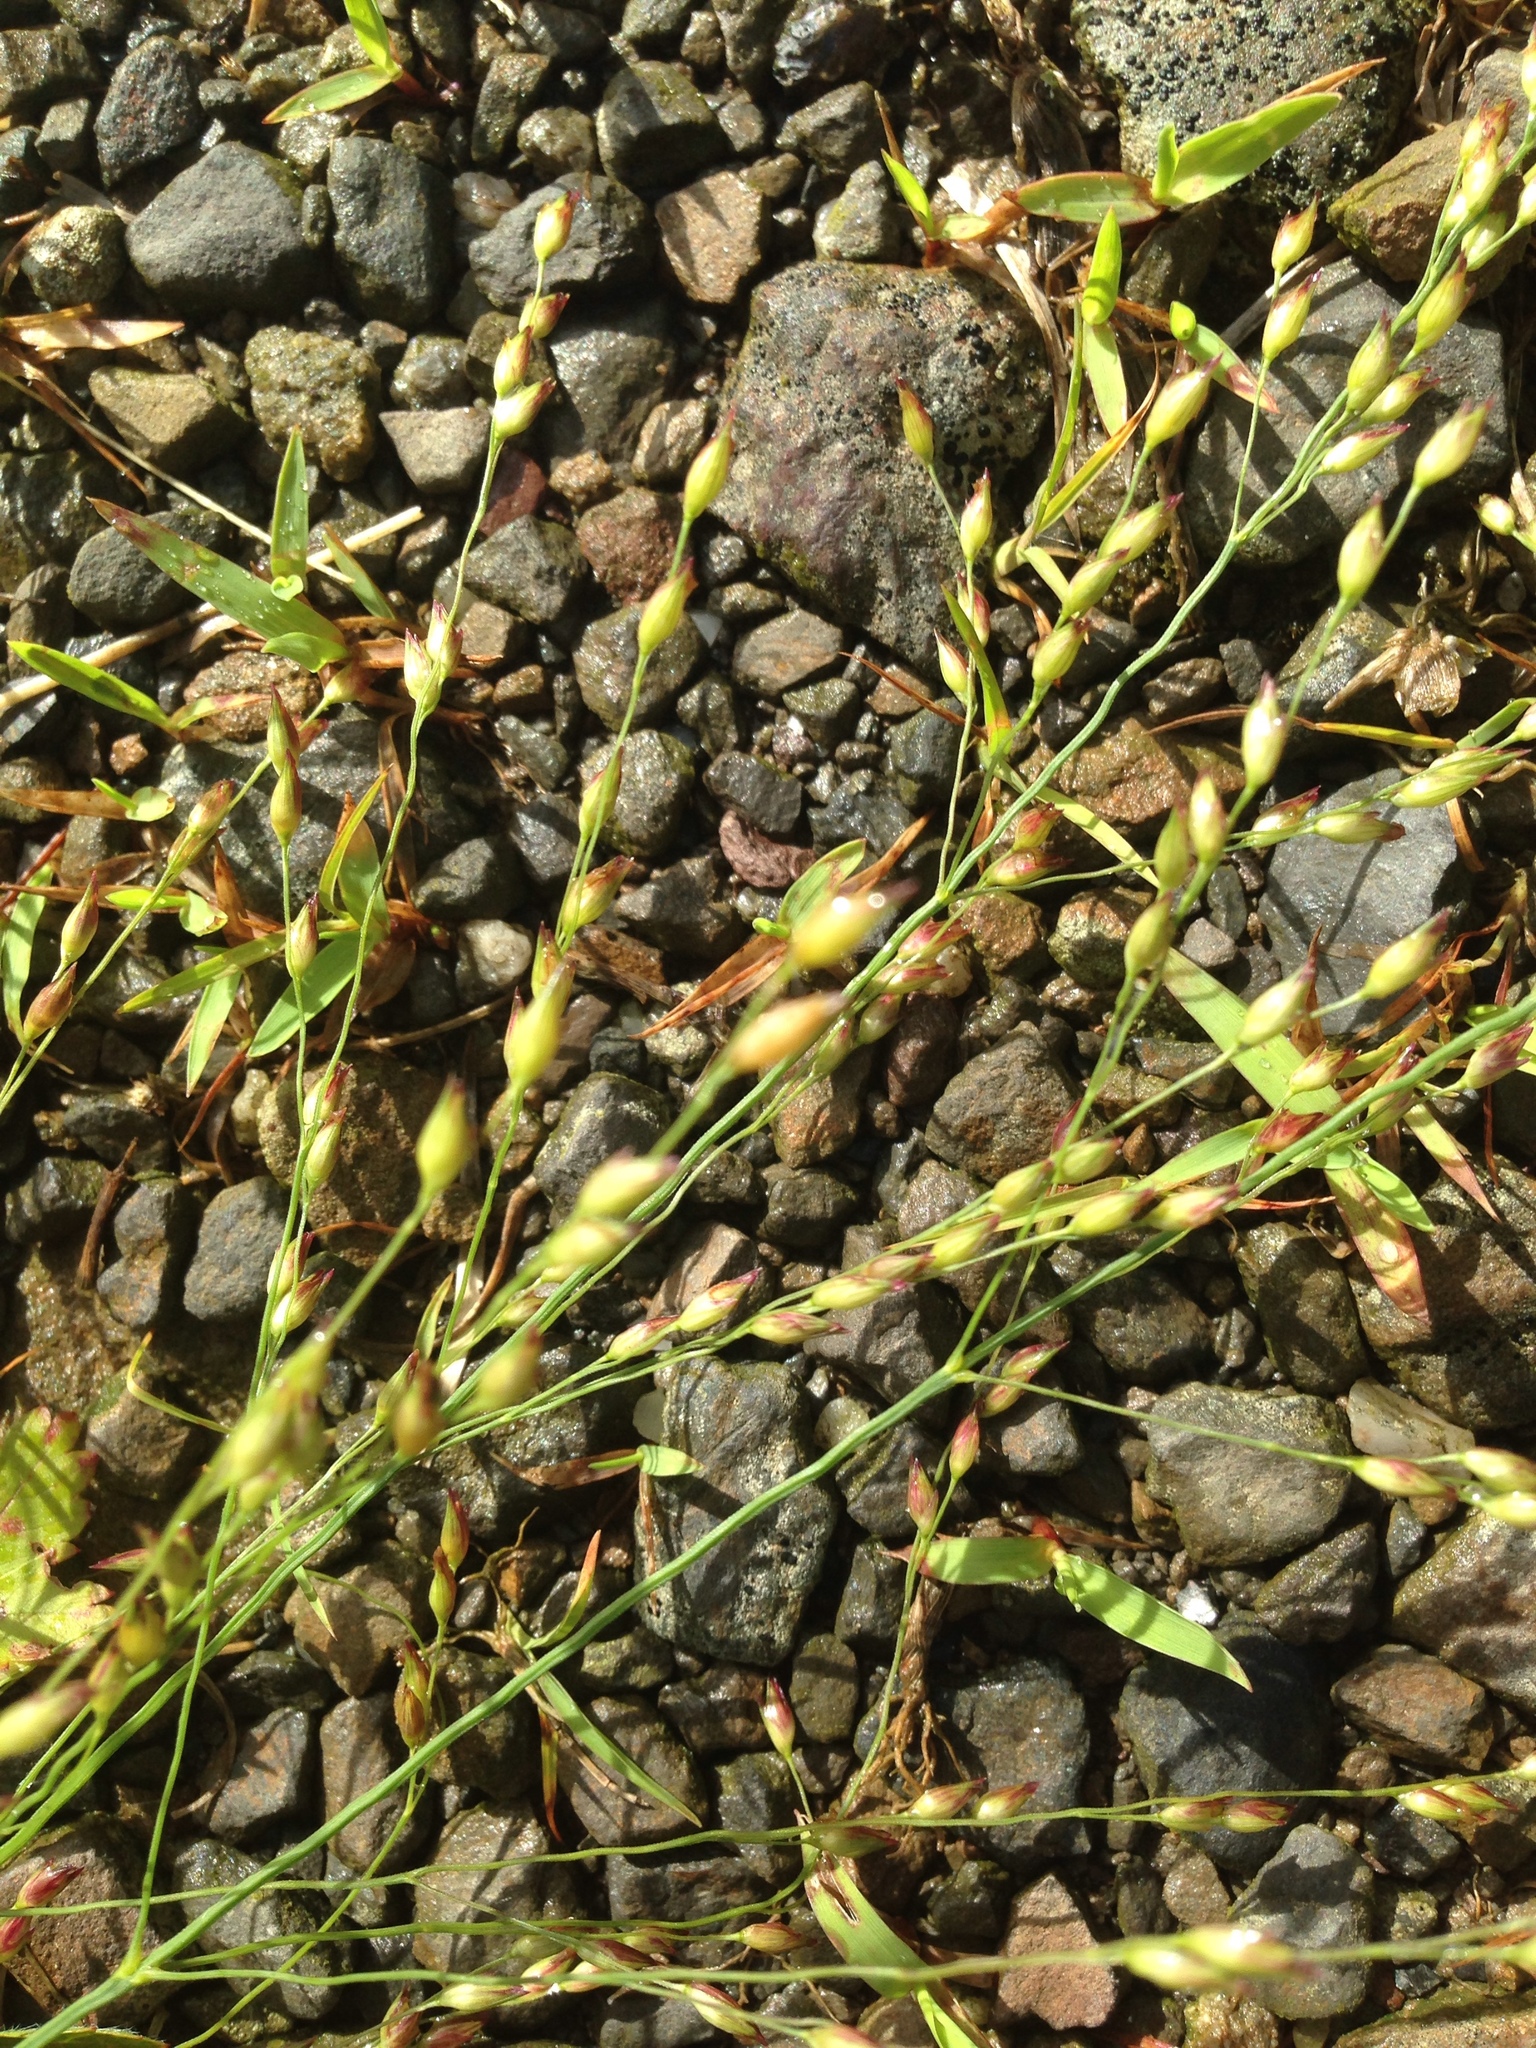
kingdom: Plantae
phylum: Tracheophyta
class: Liliopsida
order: Poales
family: Poaceae
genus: Panicum
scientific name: Panicum virgatum
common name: Switchgrass
